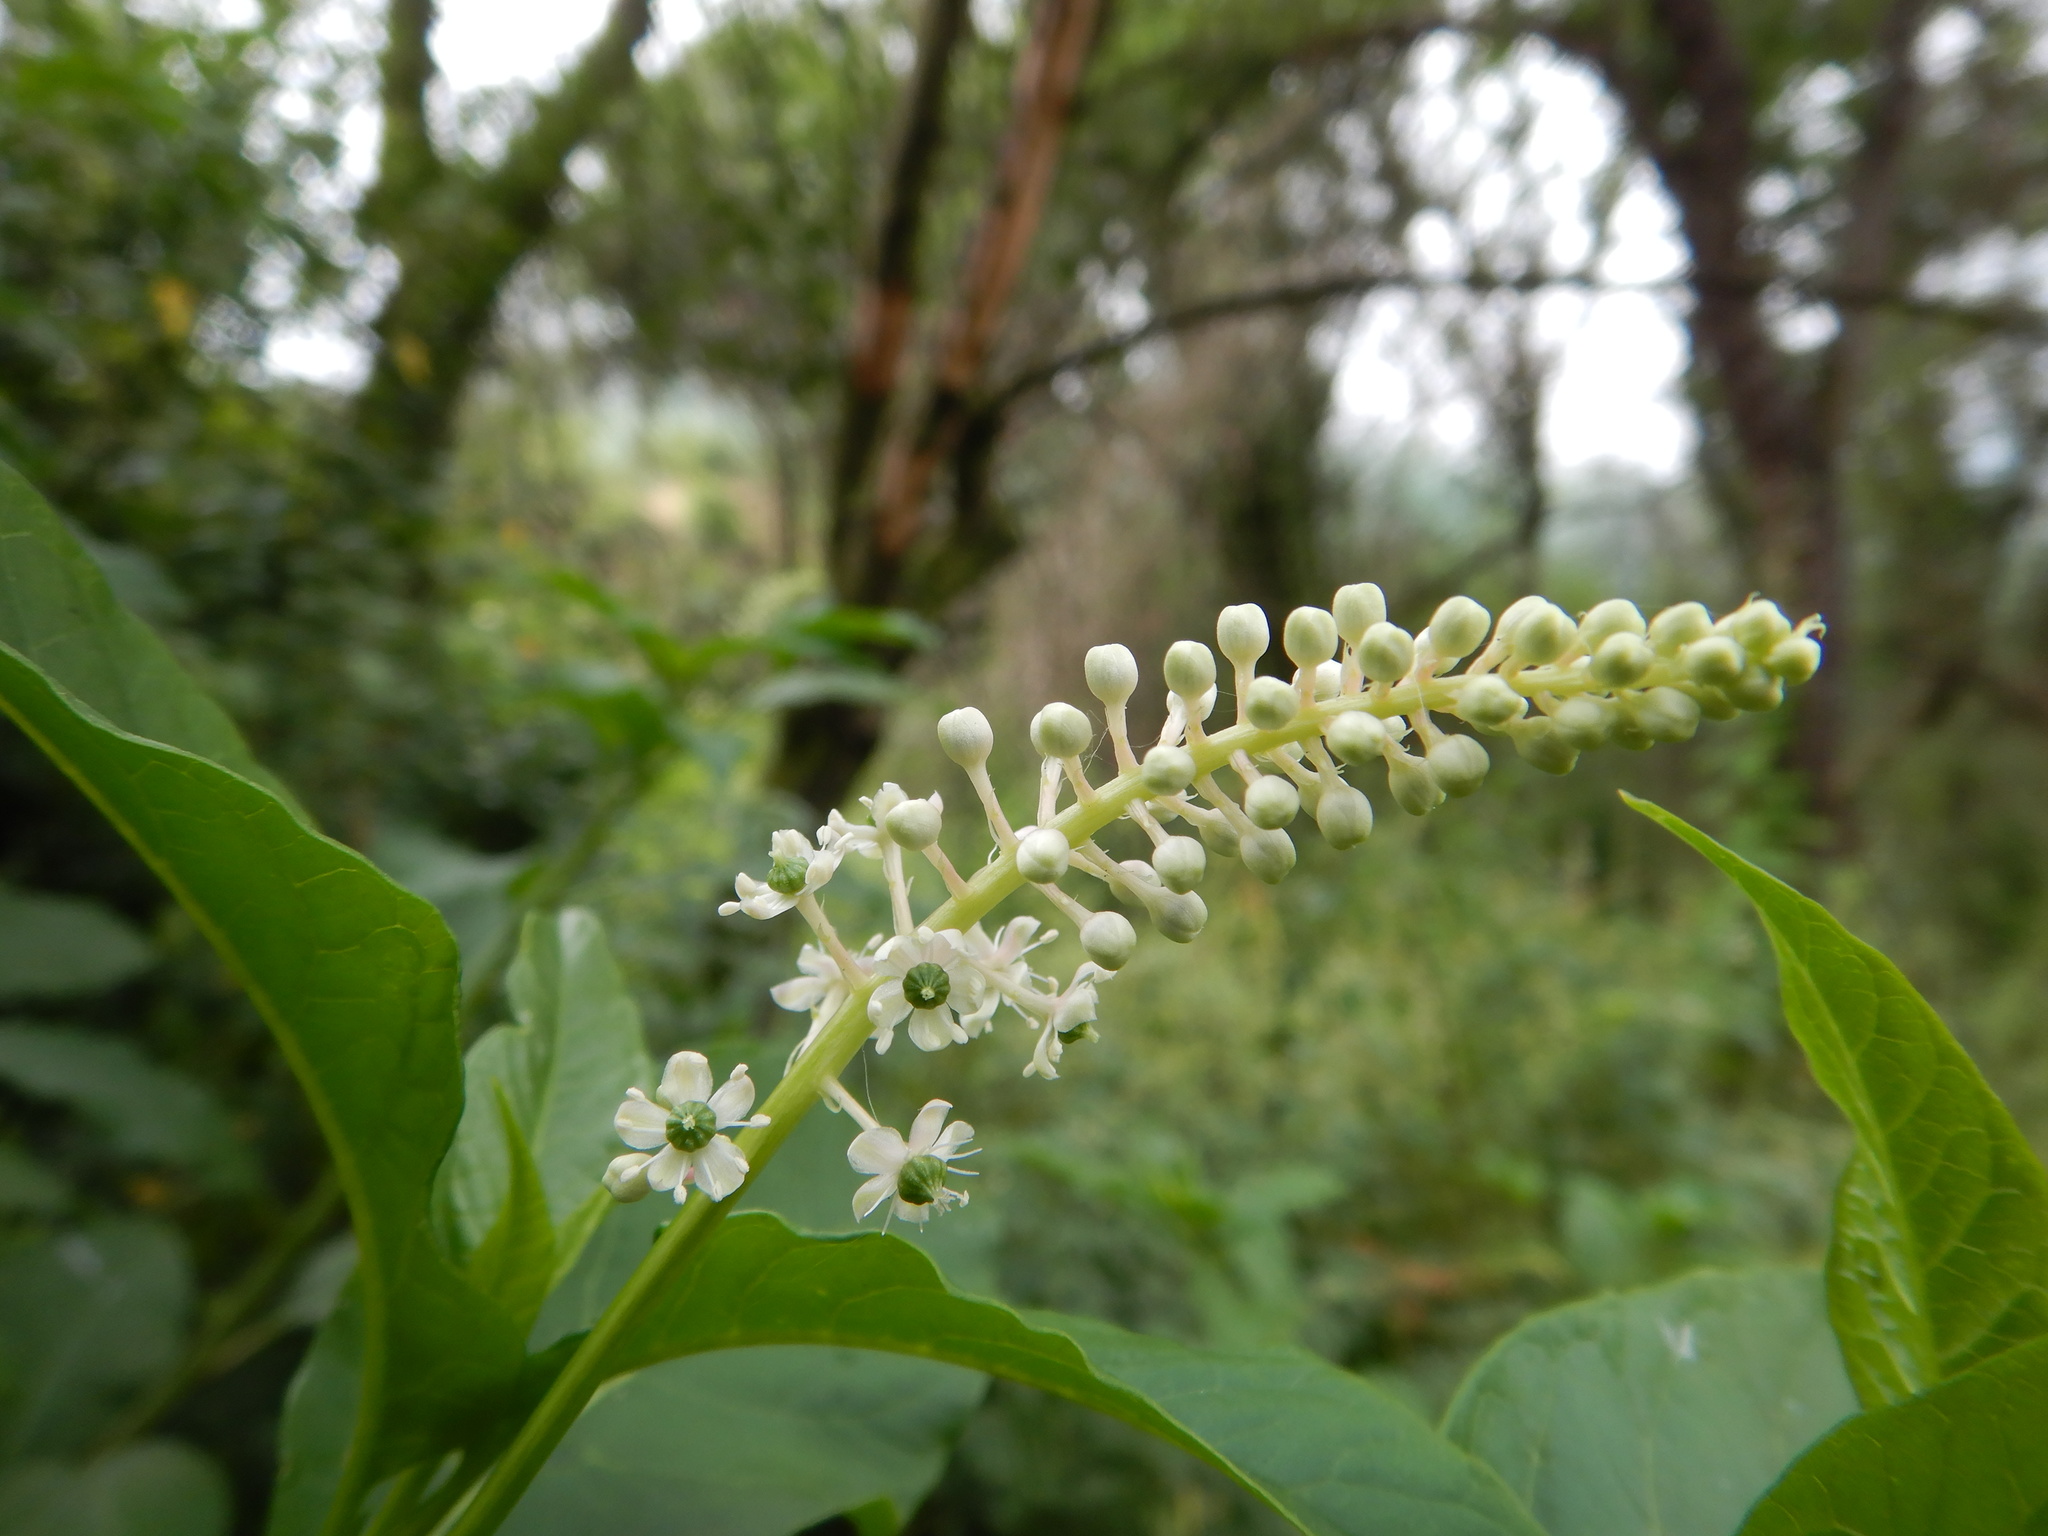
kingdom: Plantae
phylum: Tracheophyta
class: Magnoliopsida
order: Caryophyllales
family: Phytolaccaceae
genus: Phytolacca
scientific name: Phytolacca americana
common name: American pokeweed
